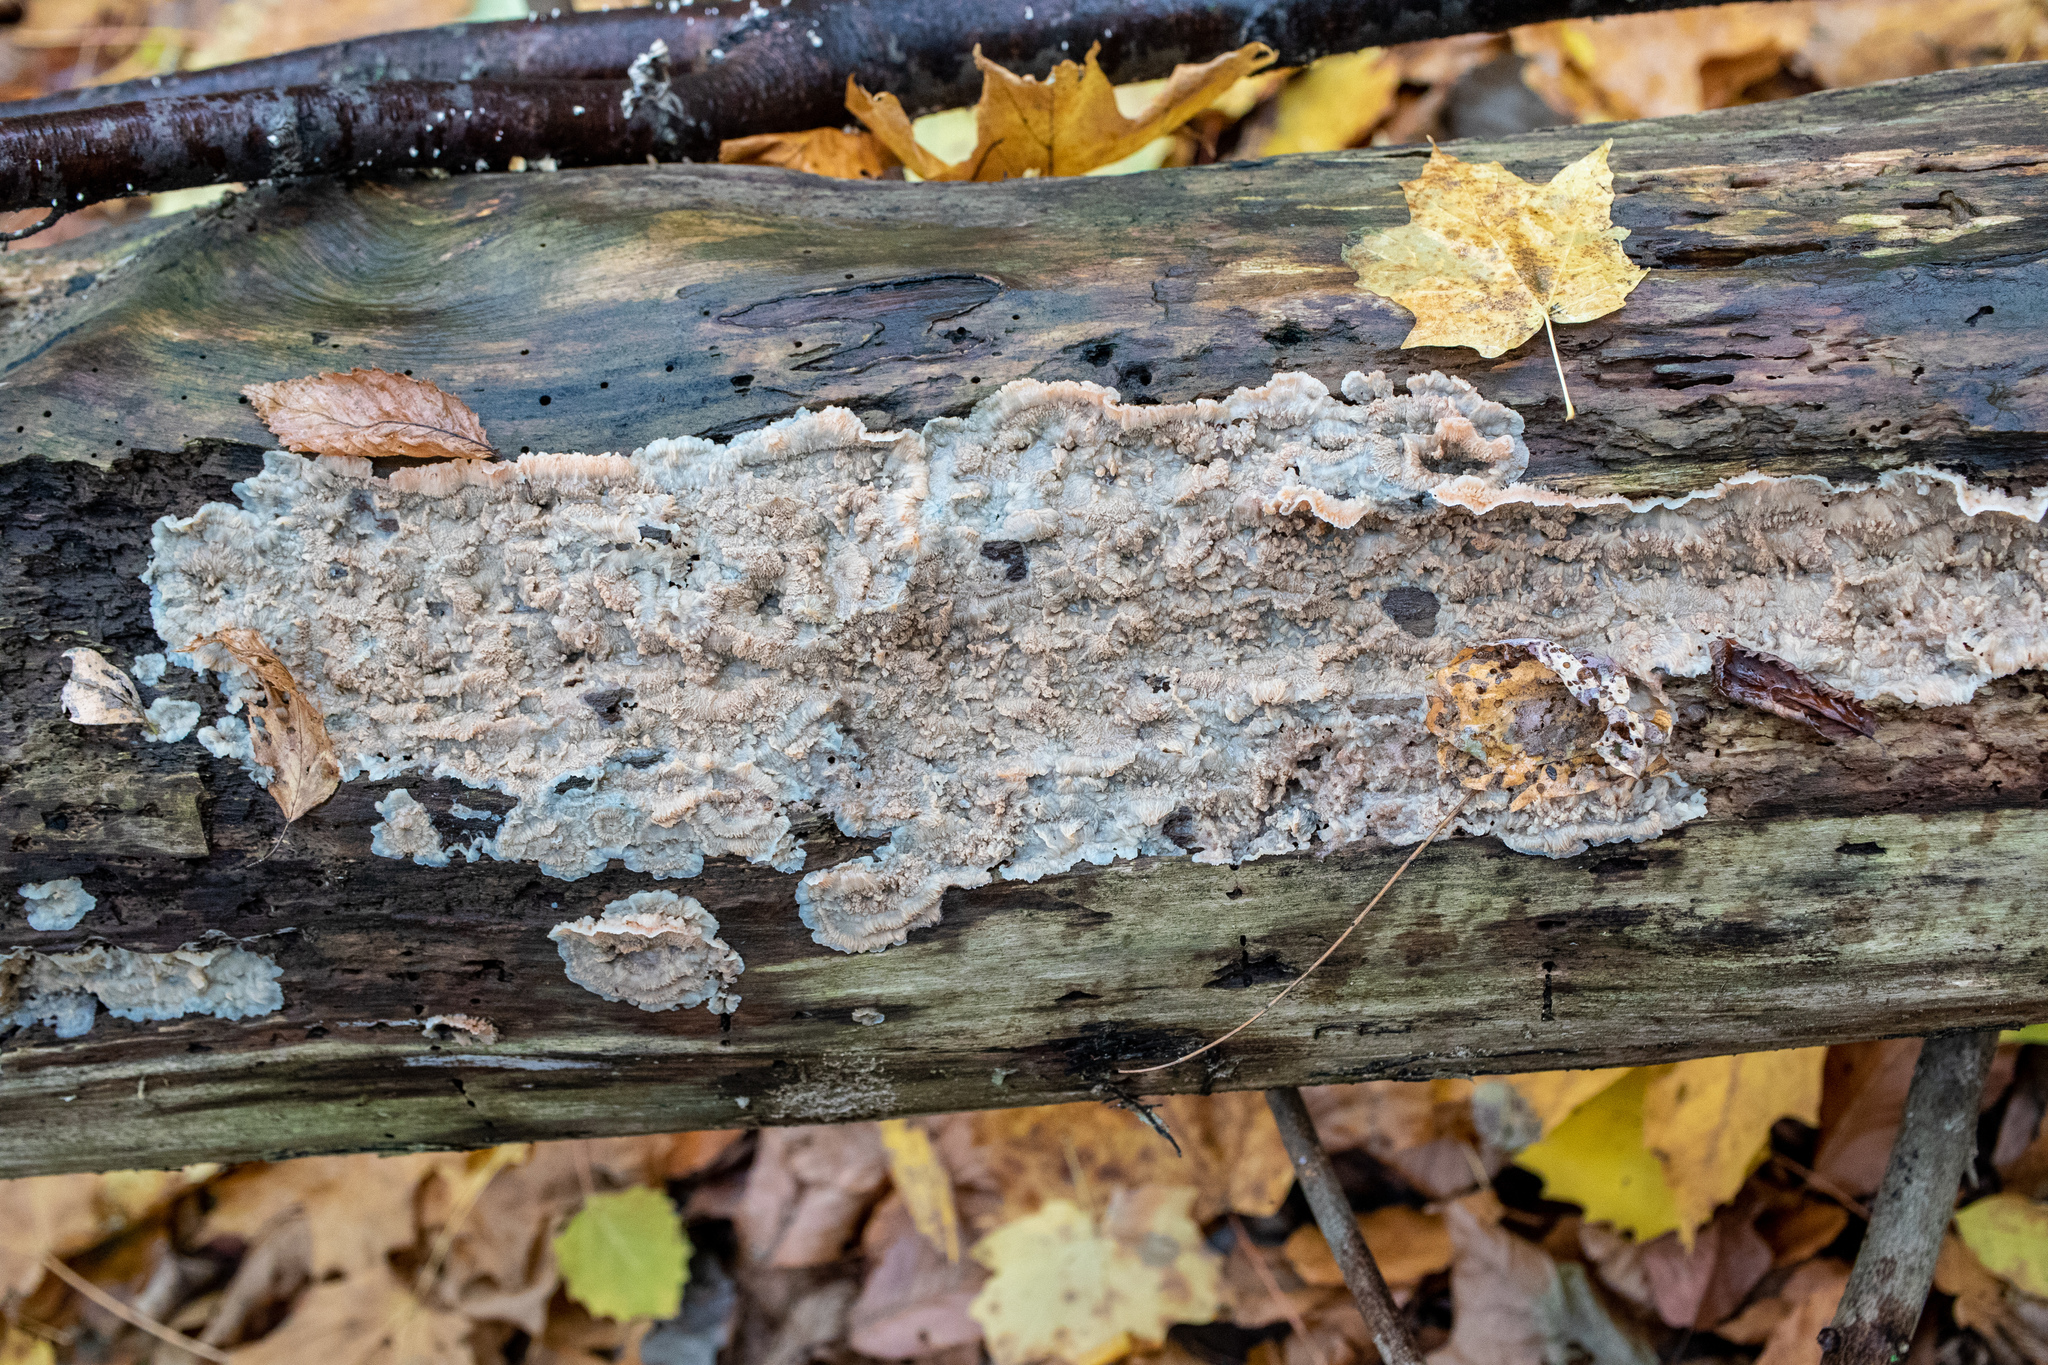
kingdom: Fungi
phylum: Basidiomycota
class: Agaricomycetes
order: Polyporales
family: Meruliaceae
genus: Phlebia
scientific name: Phlebia tremellosa
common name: Jelly rot
